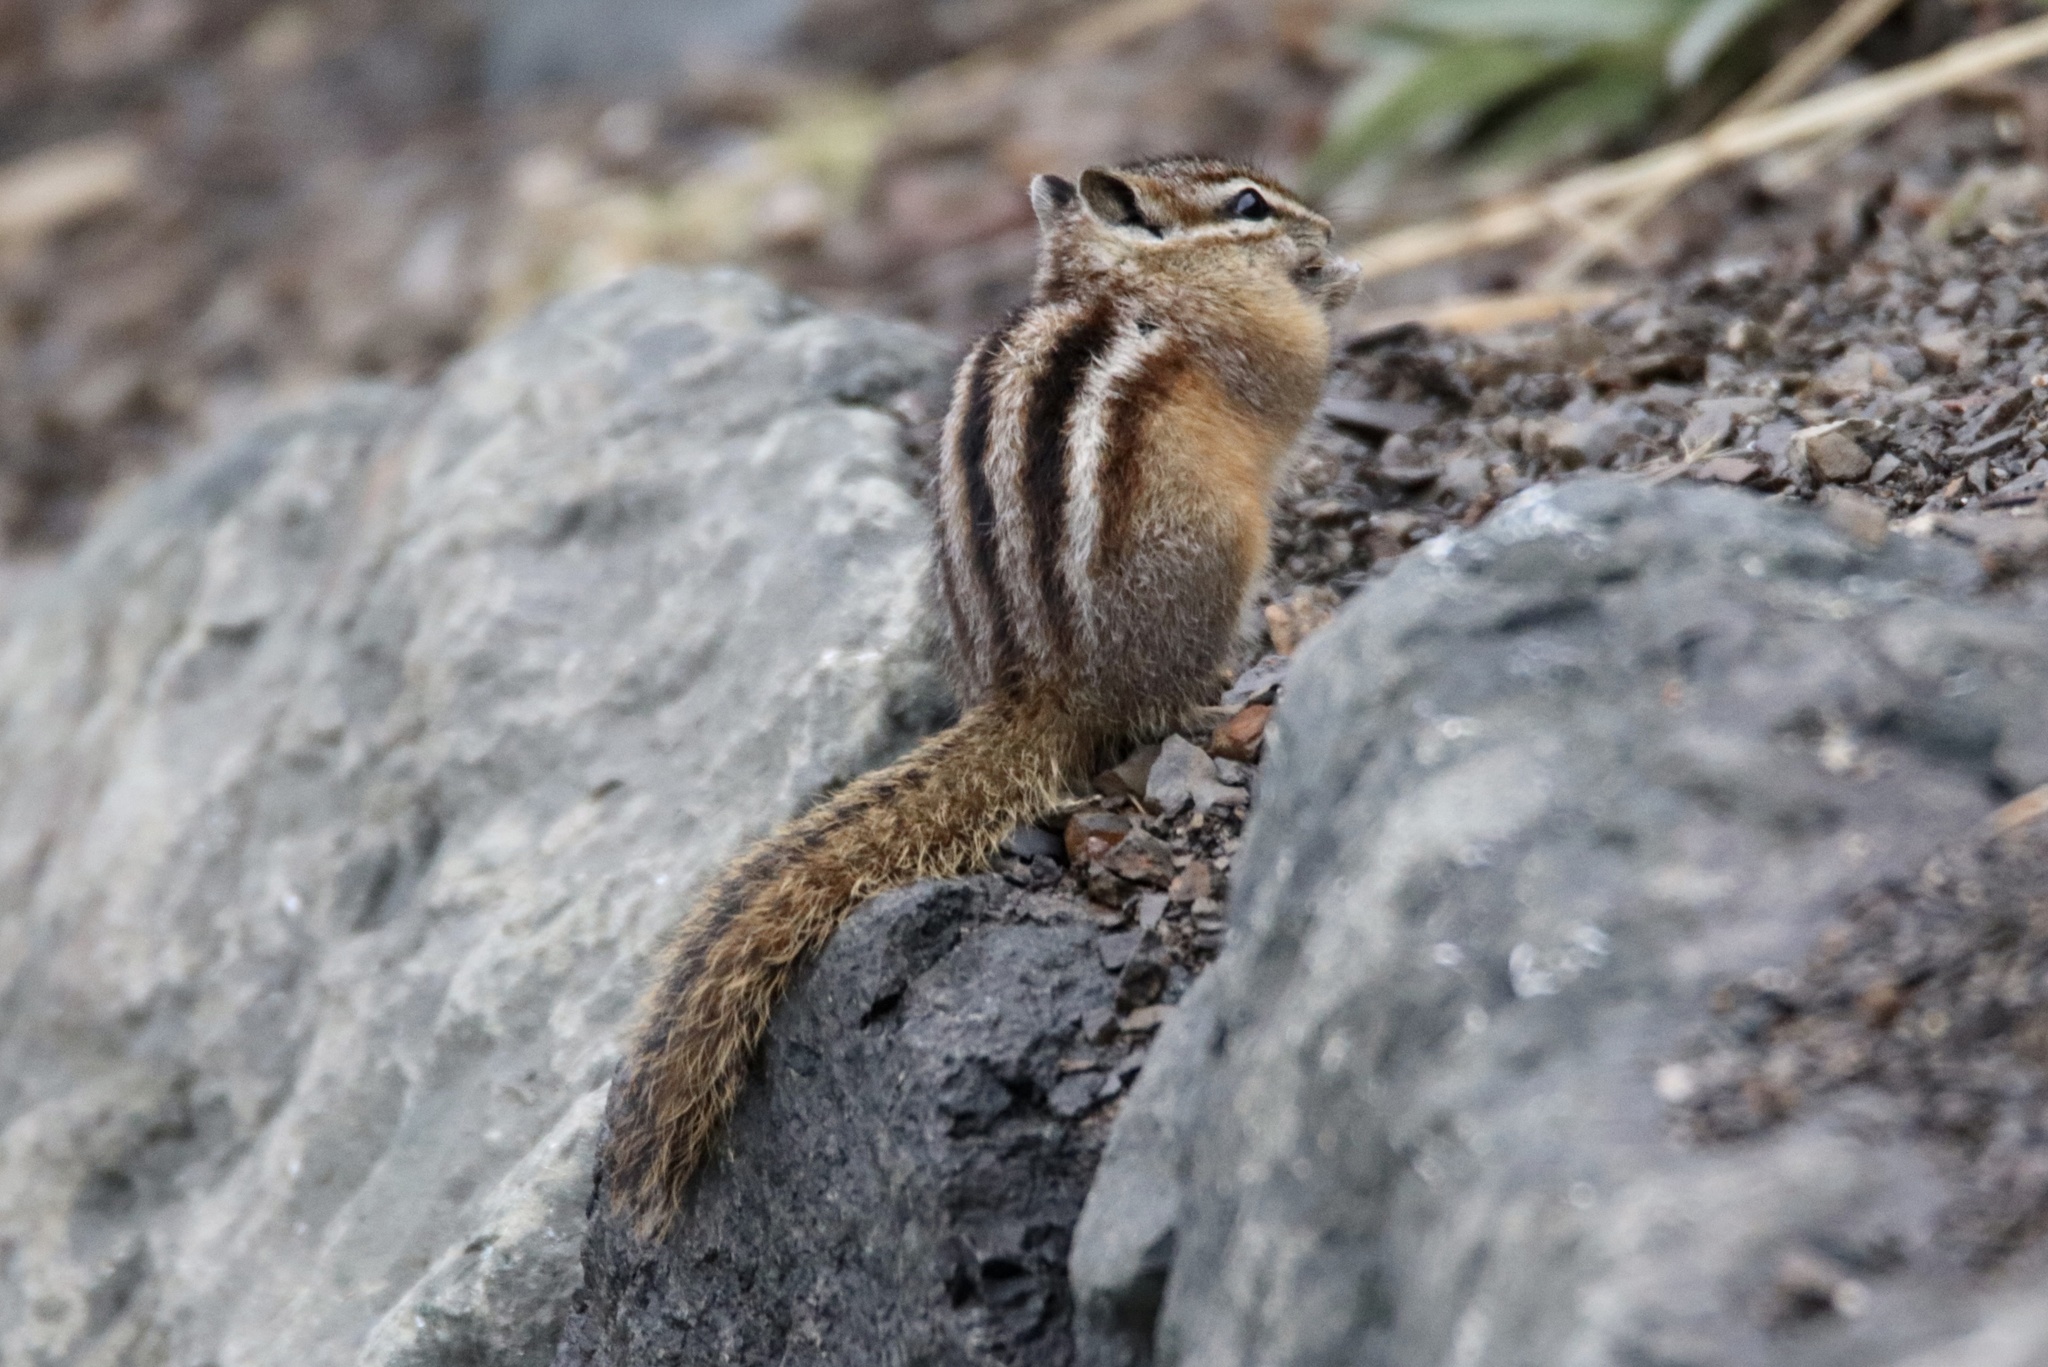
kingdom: Animalia
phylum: Chordata
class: Mammalia
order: Rodentia
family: Sciuridae
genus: Tamias
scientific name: Tamias amoenus
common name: Yellow-pine chipmunk
